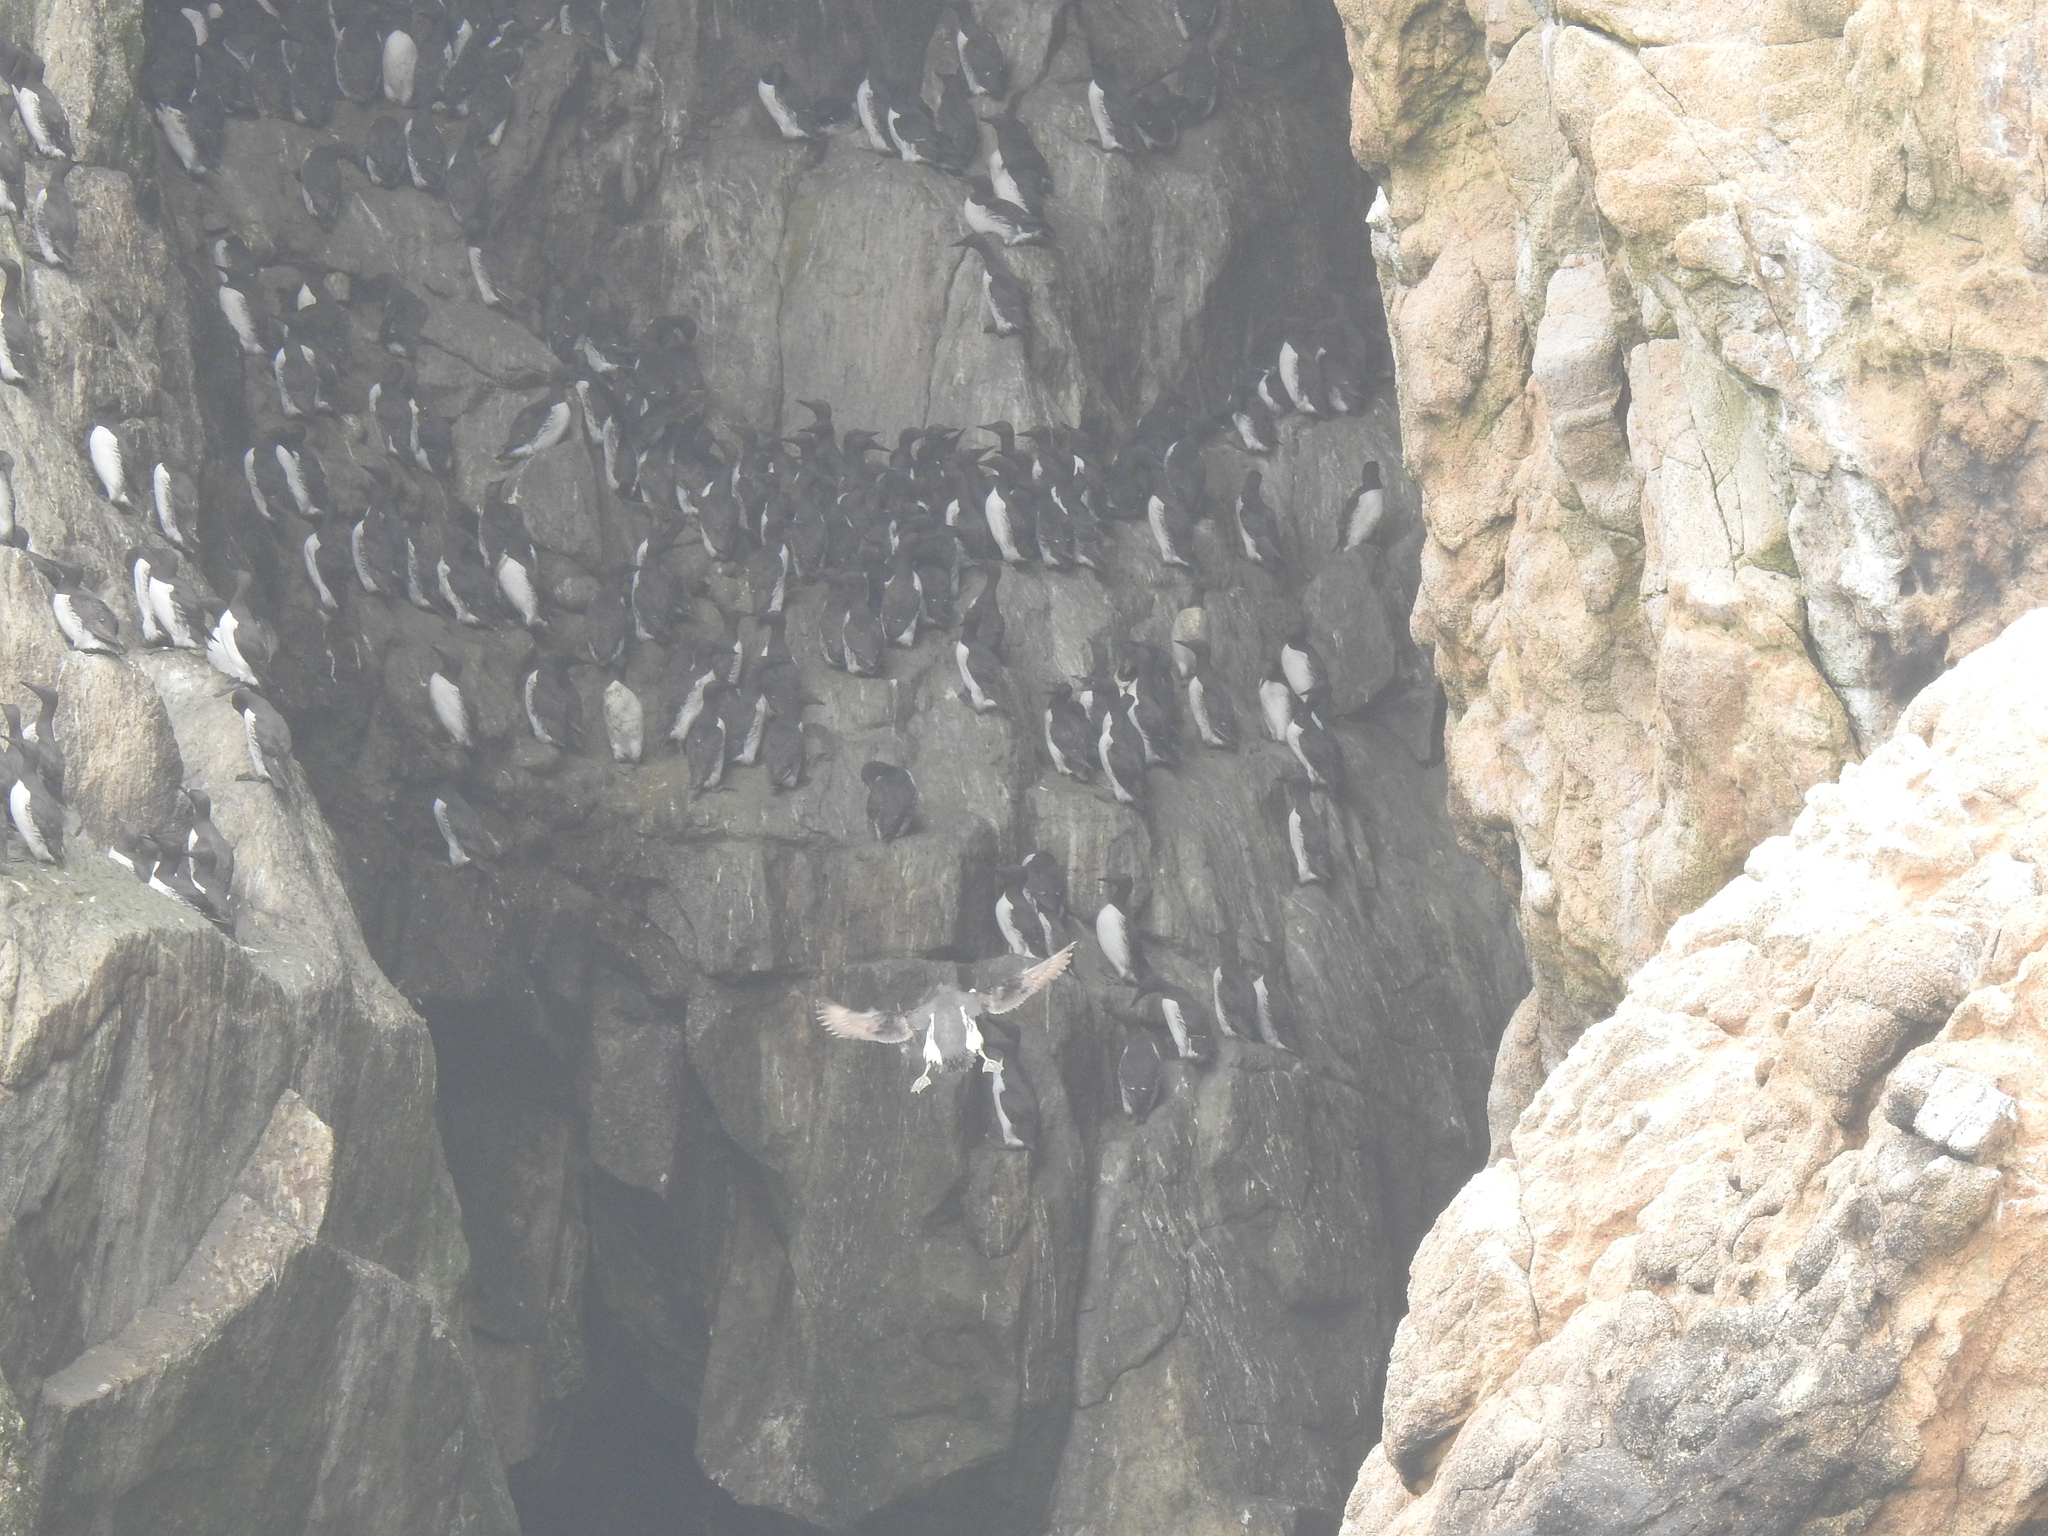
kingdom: Animalia
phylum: Chordata
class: Aves
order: Charadriiformes
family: Alcidae
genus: Uria
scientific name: Uria aalge
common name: Common murre
